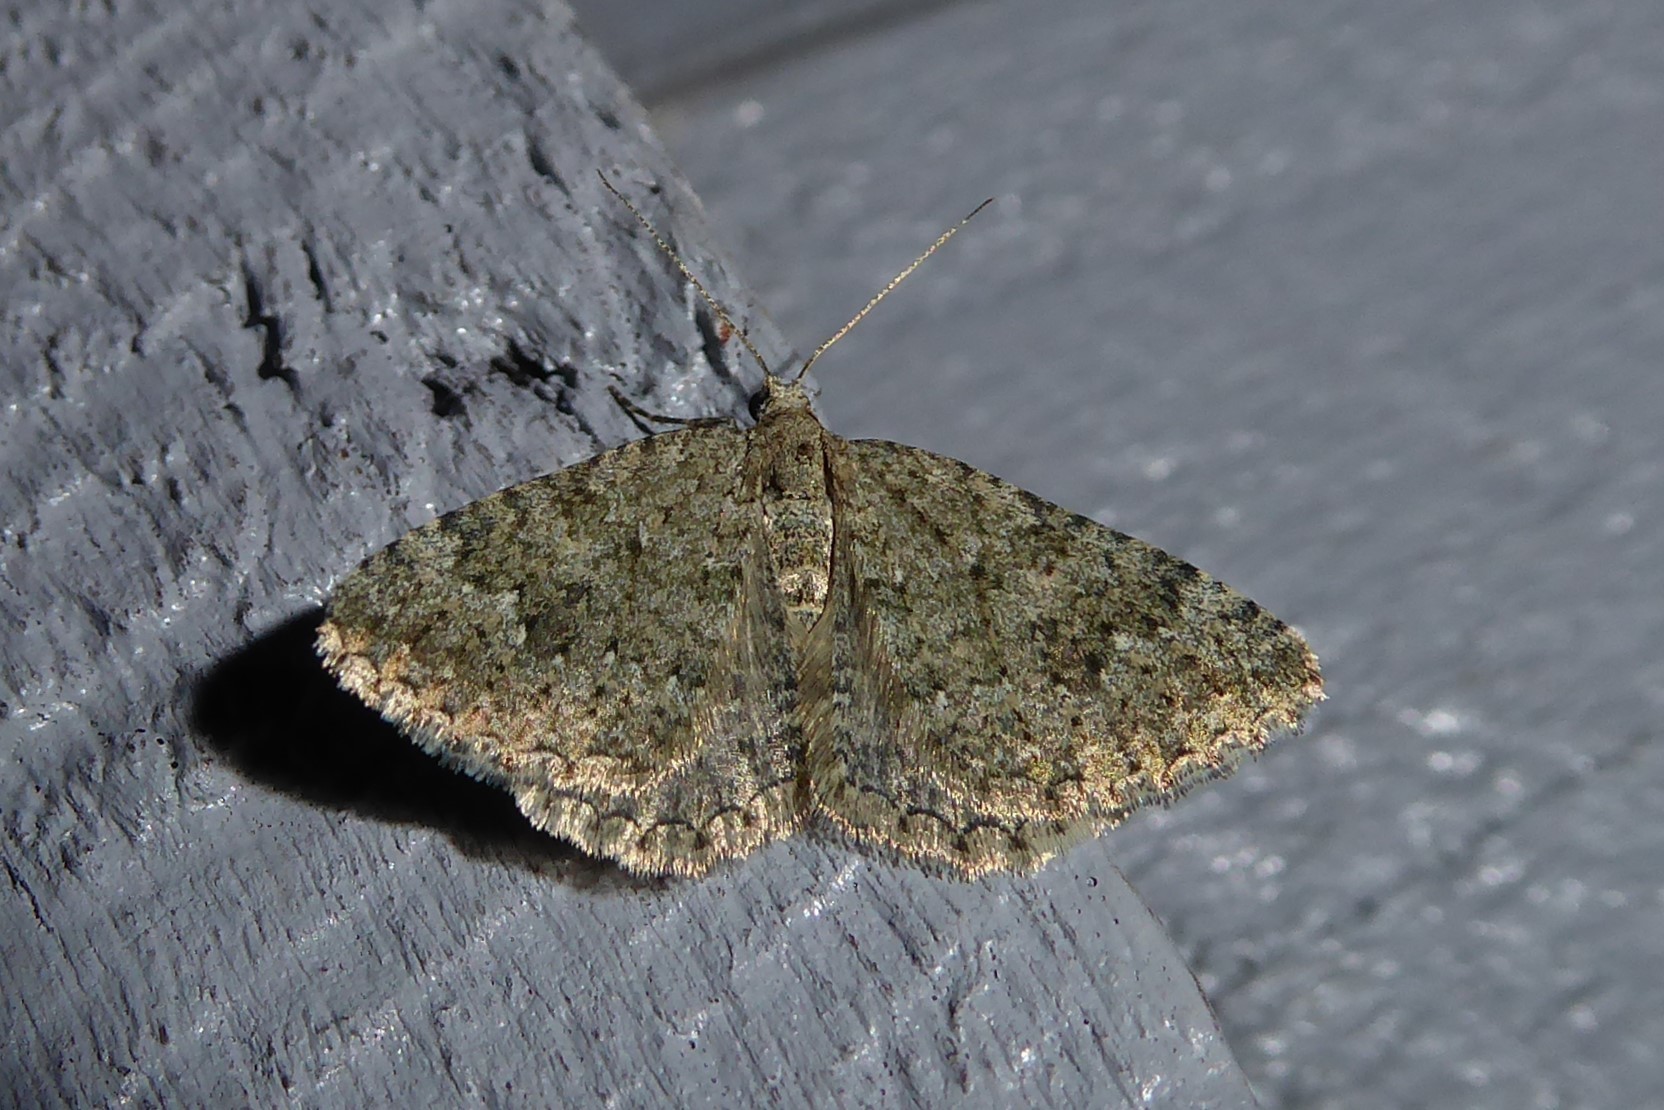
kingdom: Animalia
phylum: Arthropoda
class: Insecta
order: Lepidoptera
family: Geometridae
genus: Helastia
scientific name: Helastia corcularia
